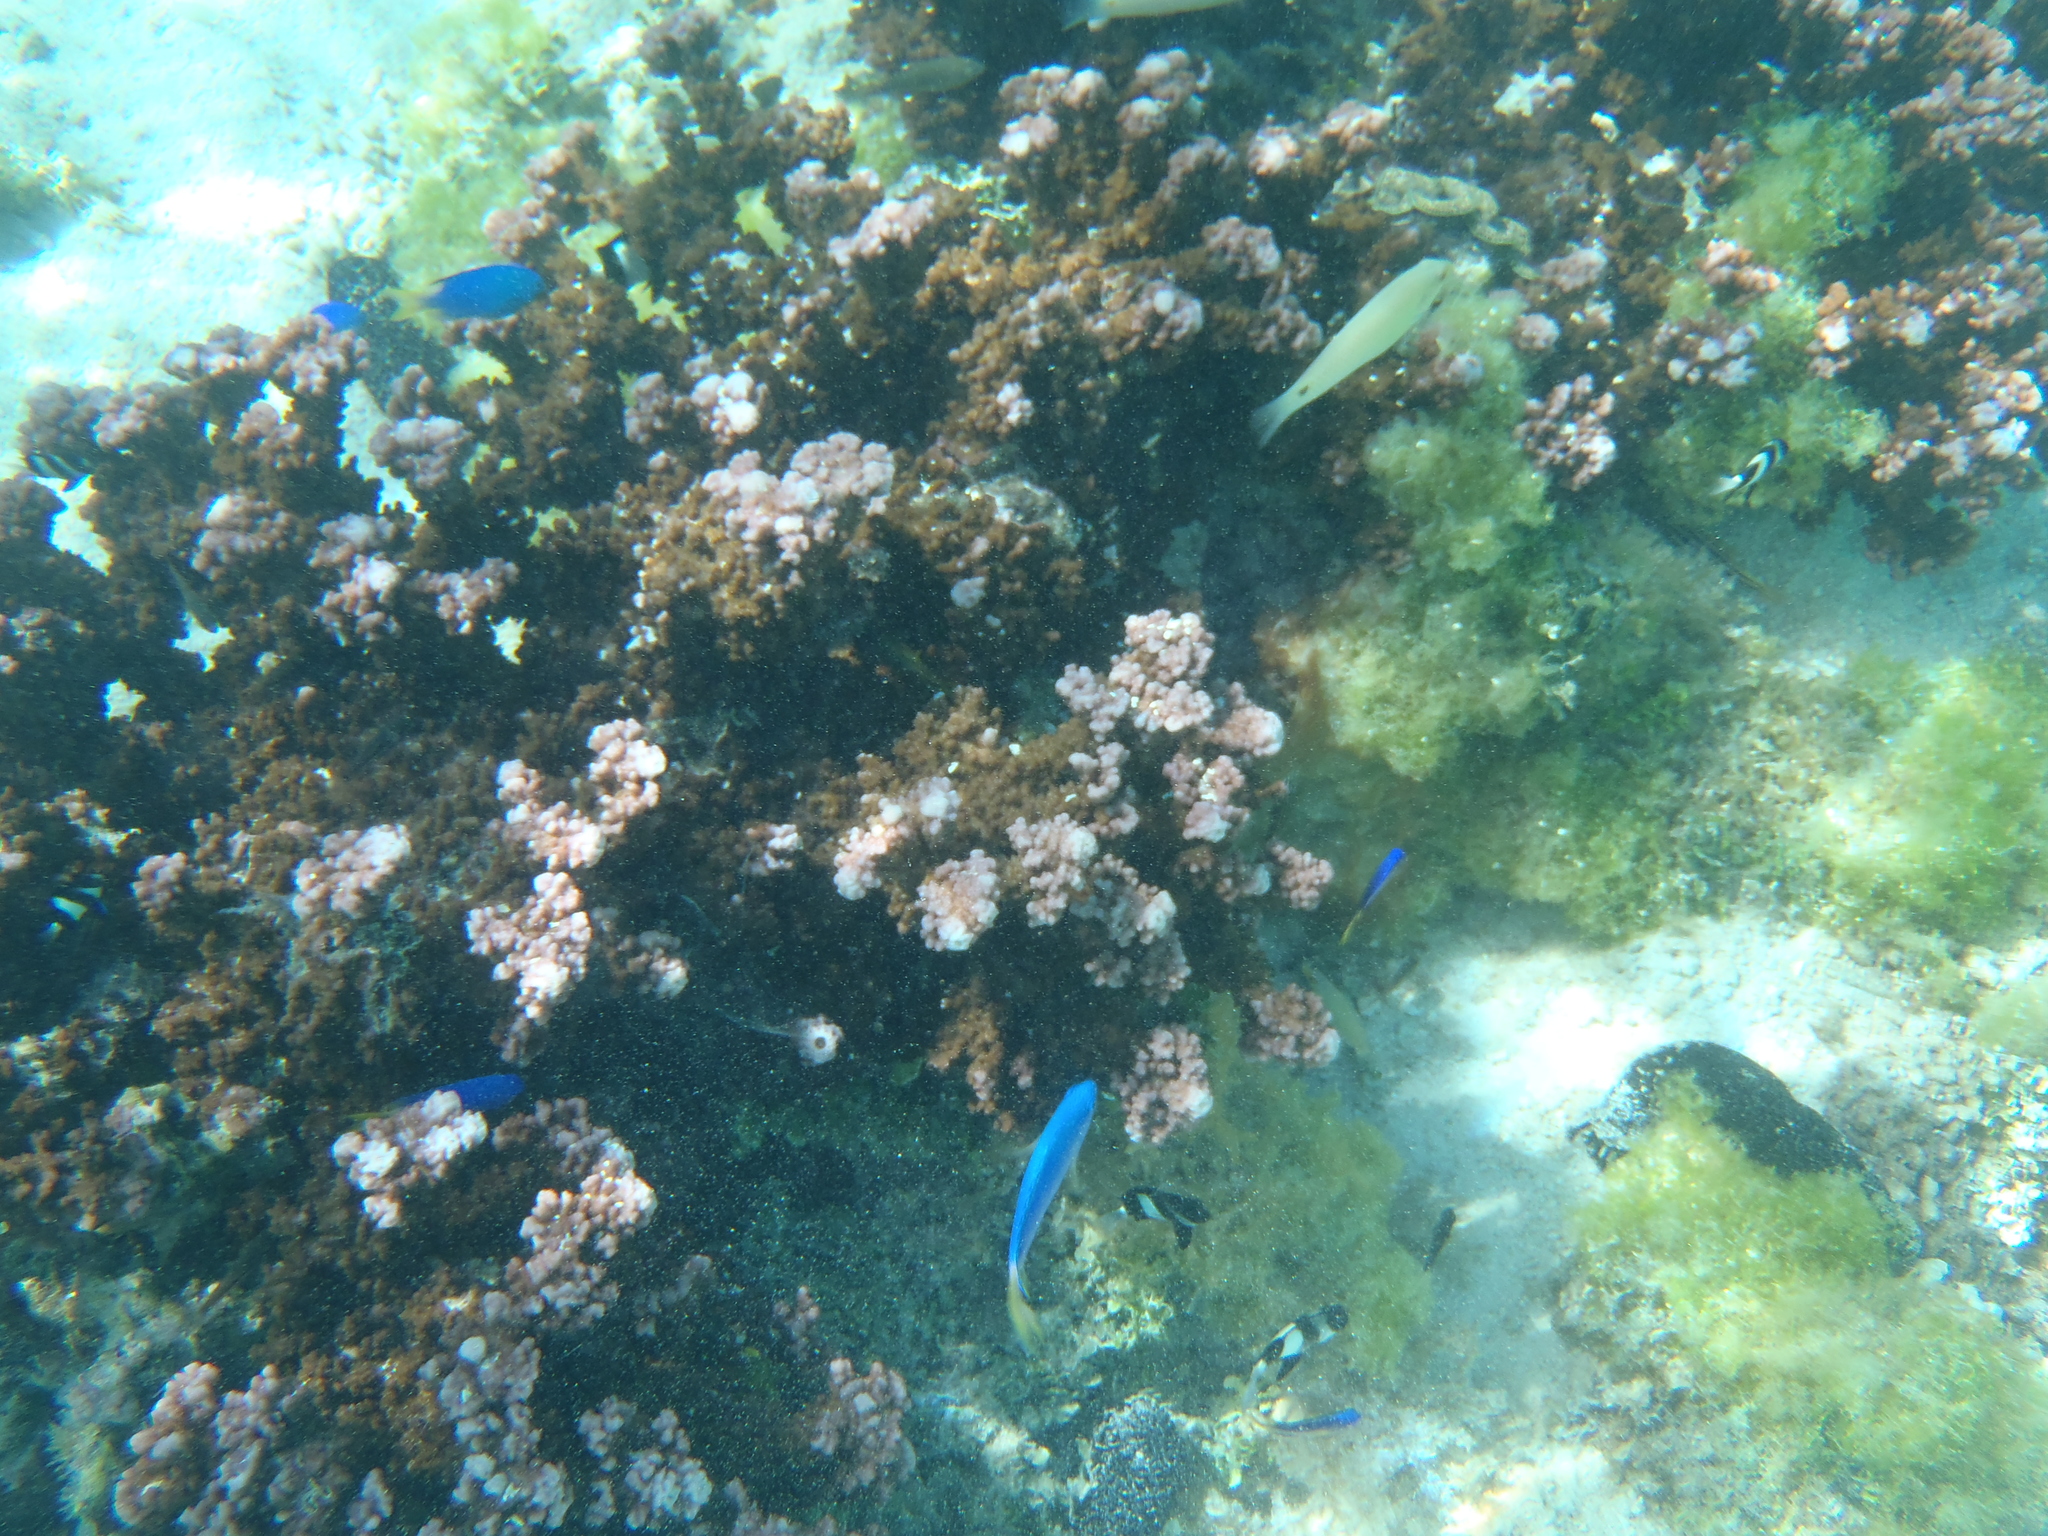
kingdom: Animalia
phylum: Chordata
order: Perciformes
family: Pomacentridae
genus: Pomacentrus
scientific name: Pomacentrus pavo
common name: Sapphire damsel
